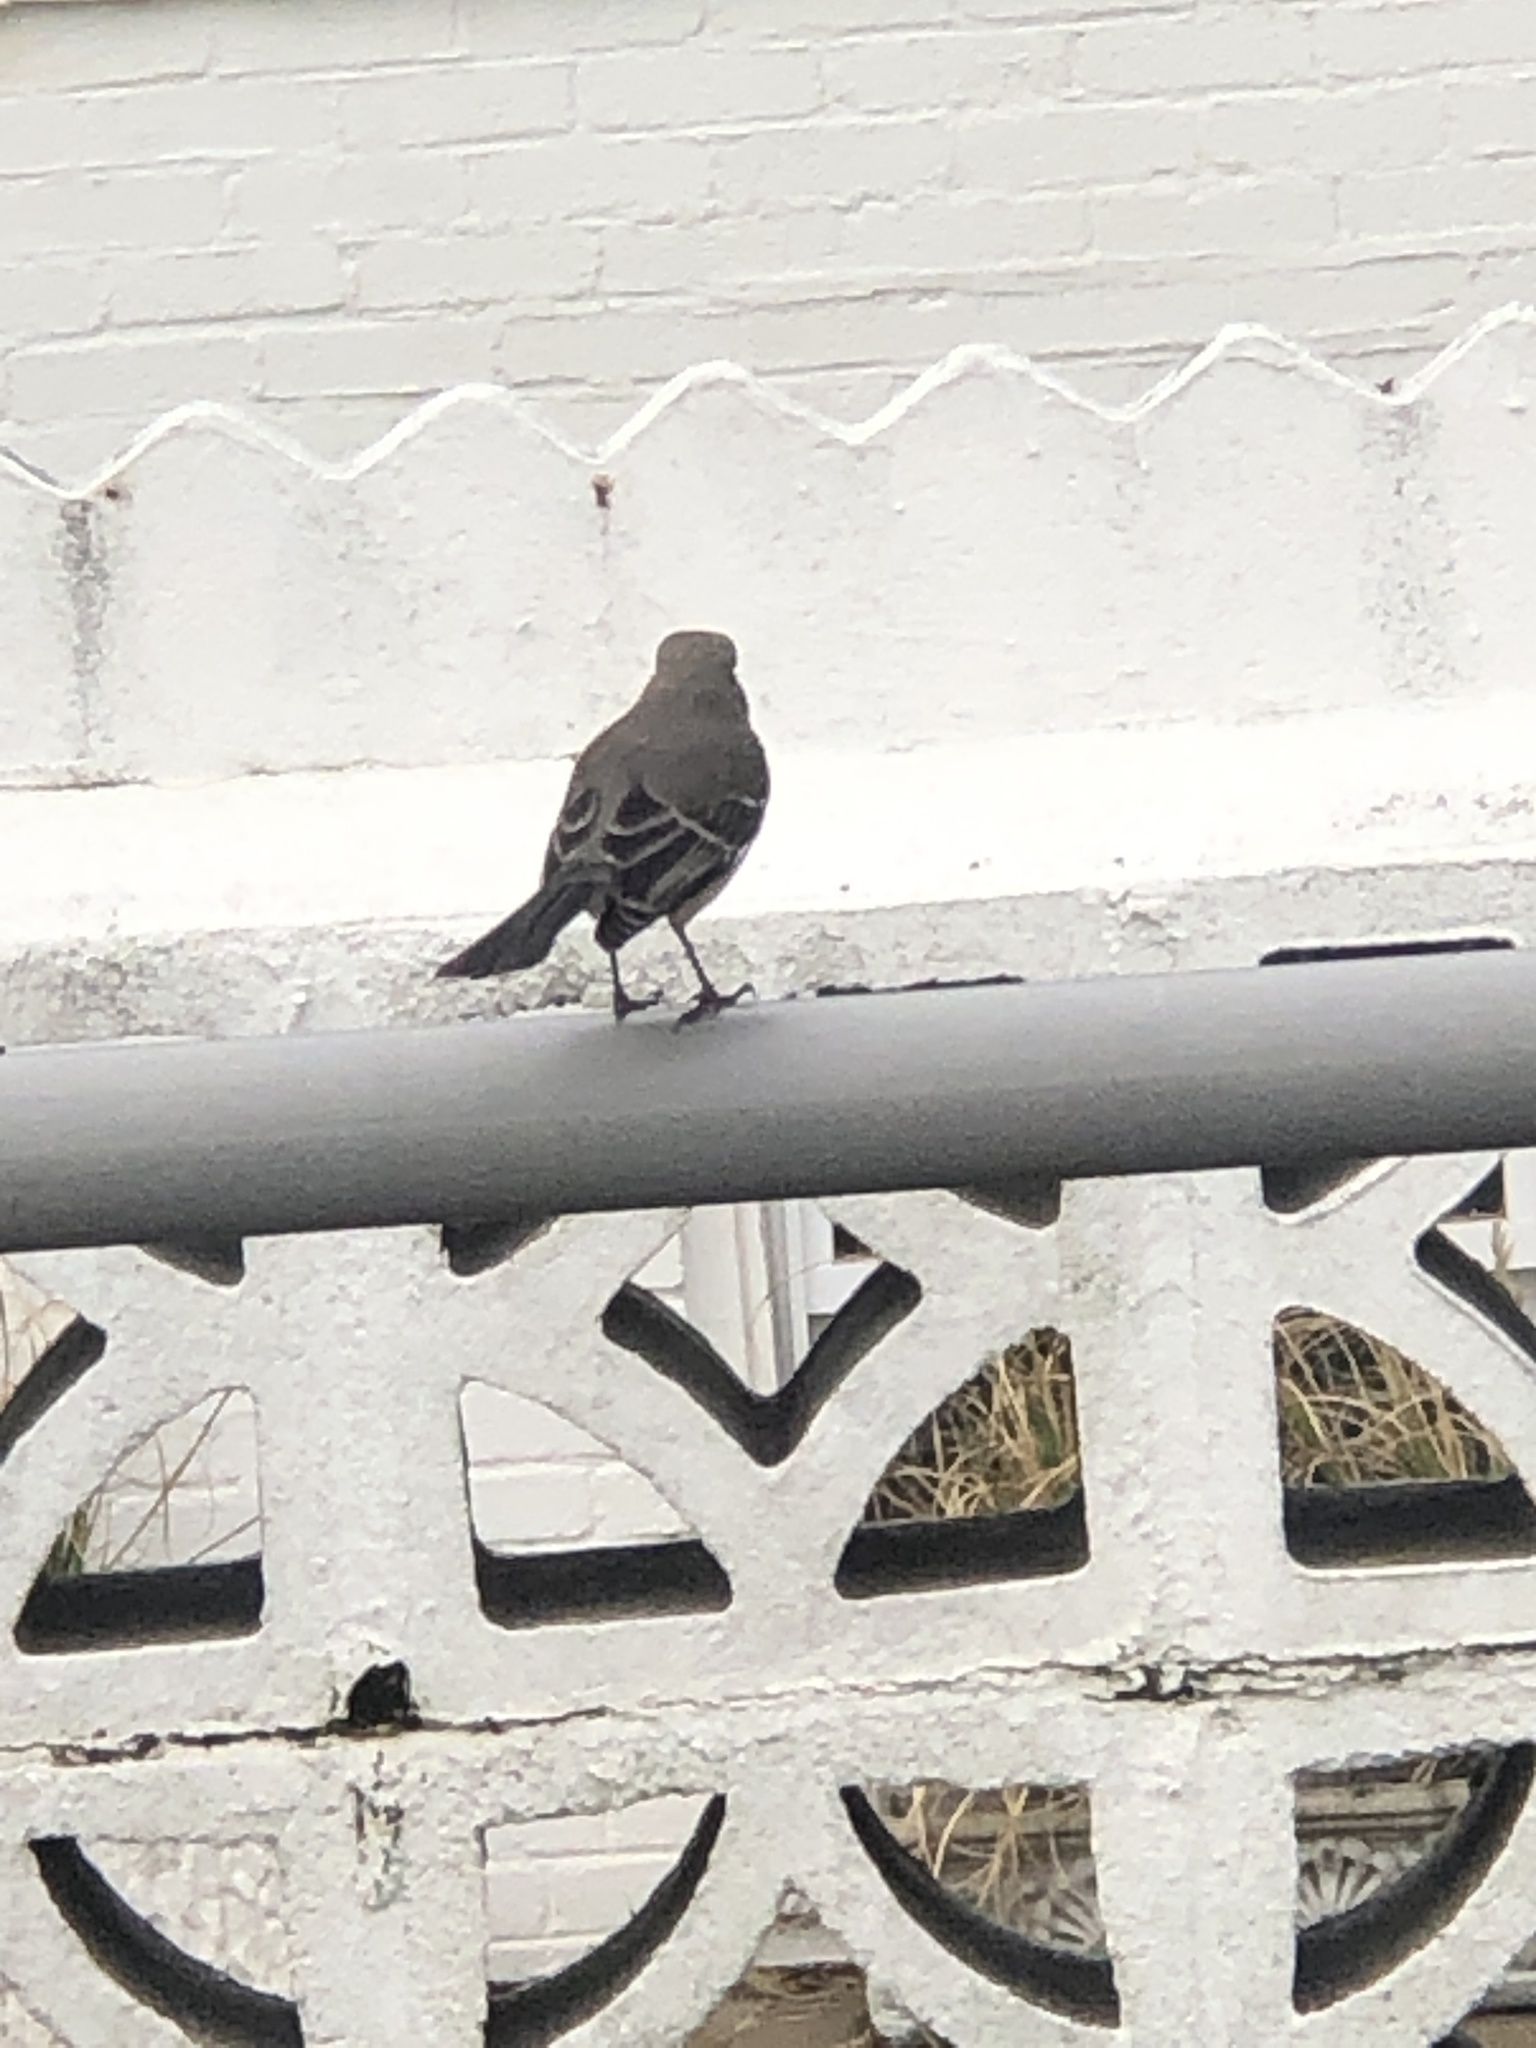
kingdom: Animalia
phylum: Chordata
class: Aves
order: Passeriformes
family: Mimidae
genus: Mimus
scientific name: Mimus polyglottos
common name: Northern mockingbird
